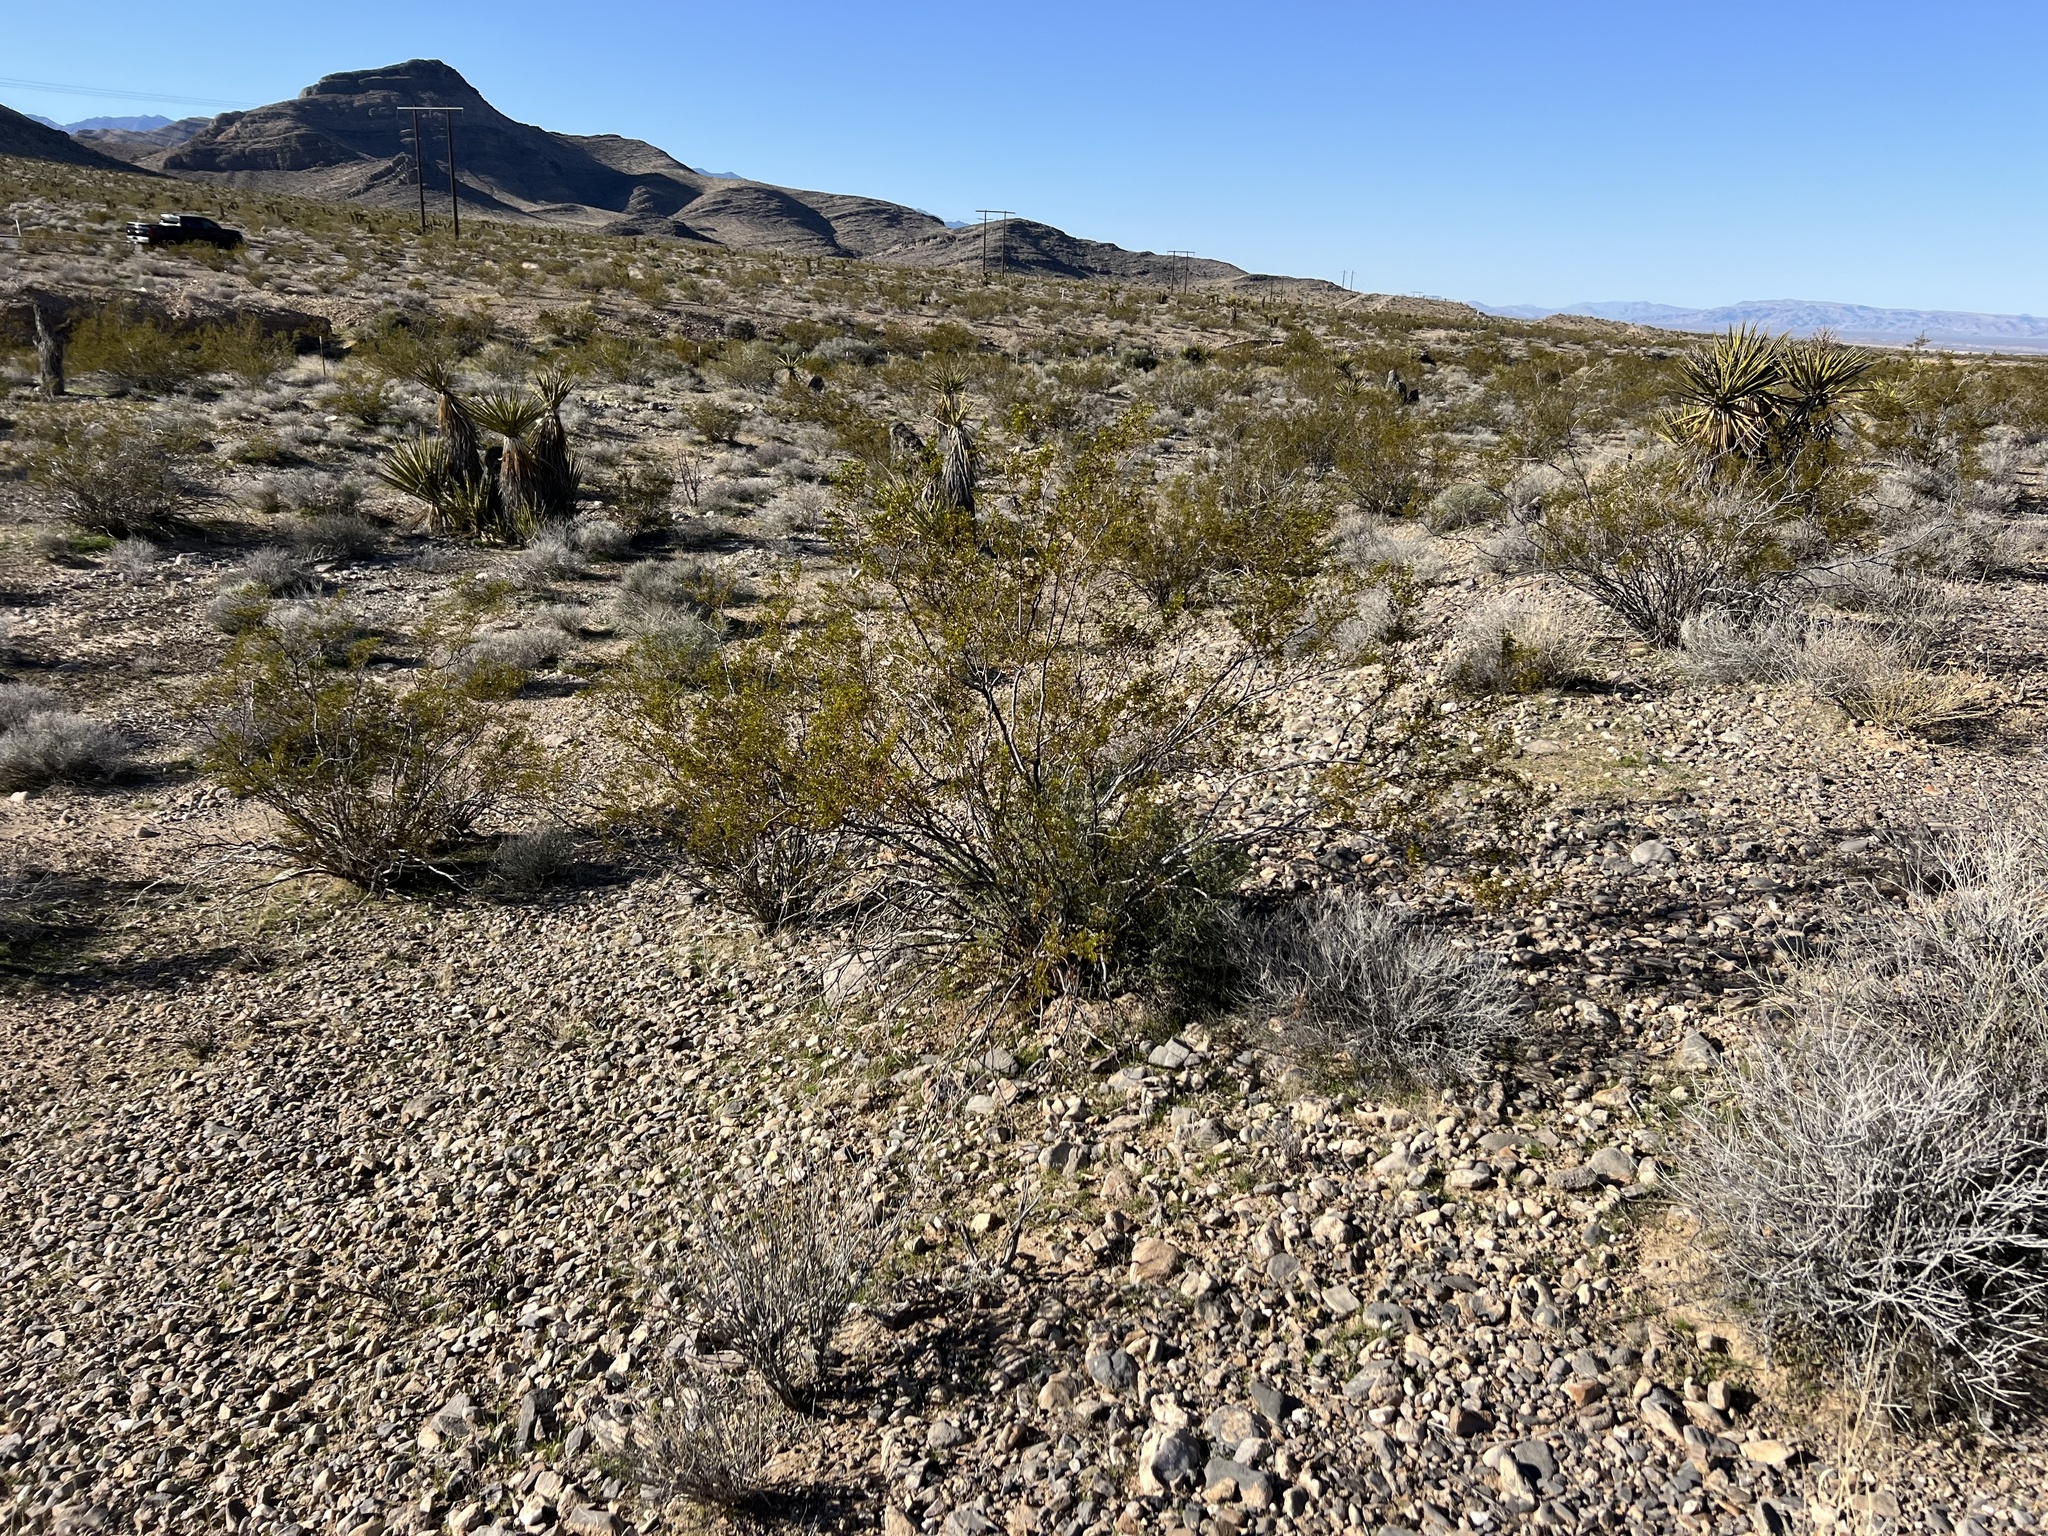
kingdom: Plantae
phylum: Tracheophyta
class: Magnoliopsida
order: Zygophyllales
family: Zygophyllaceae
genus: Larrea
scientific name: Larrea tridentata
